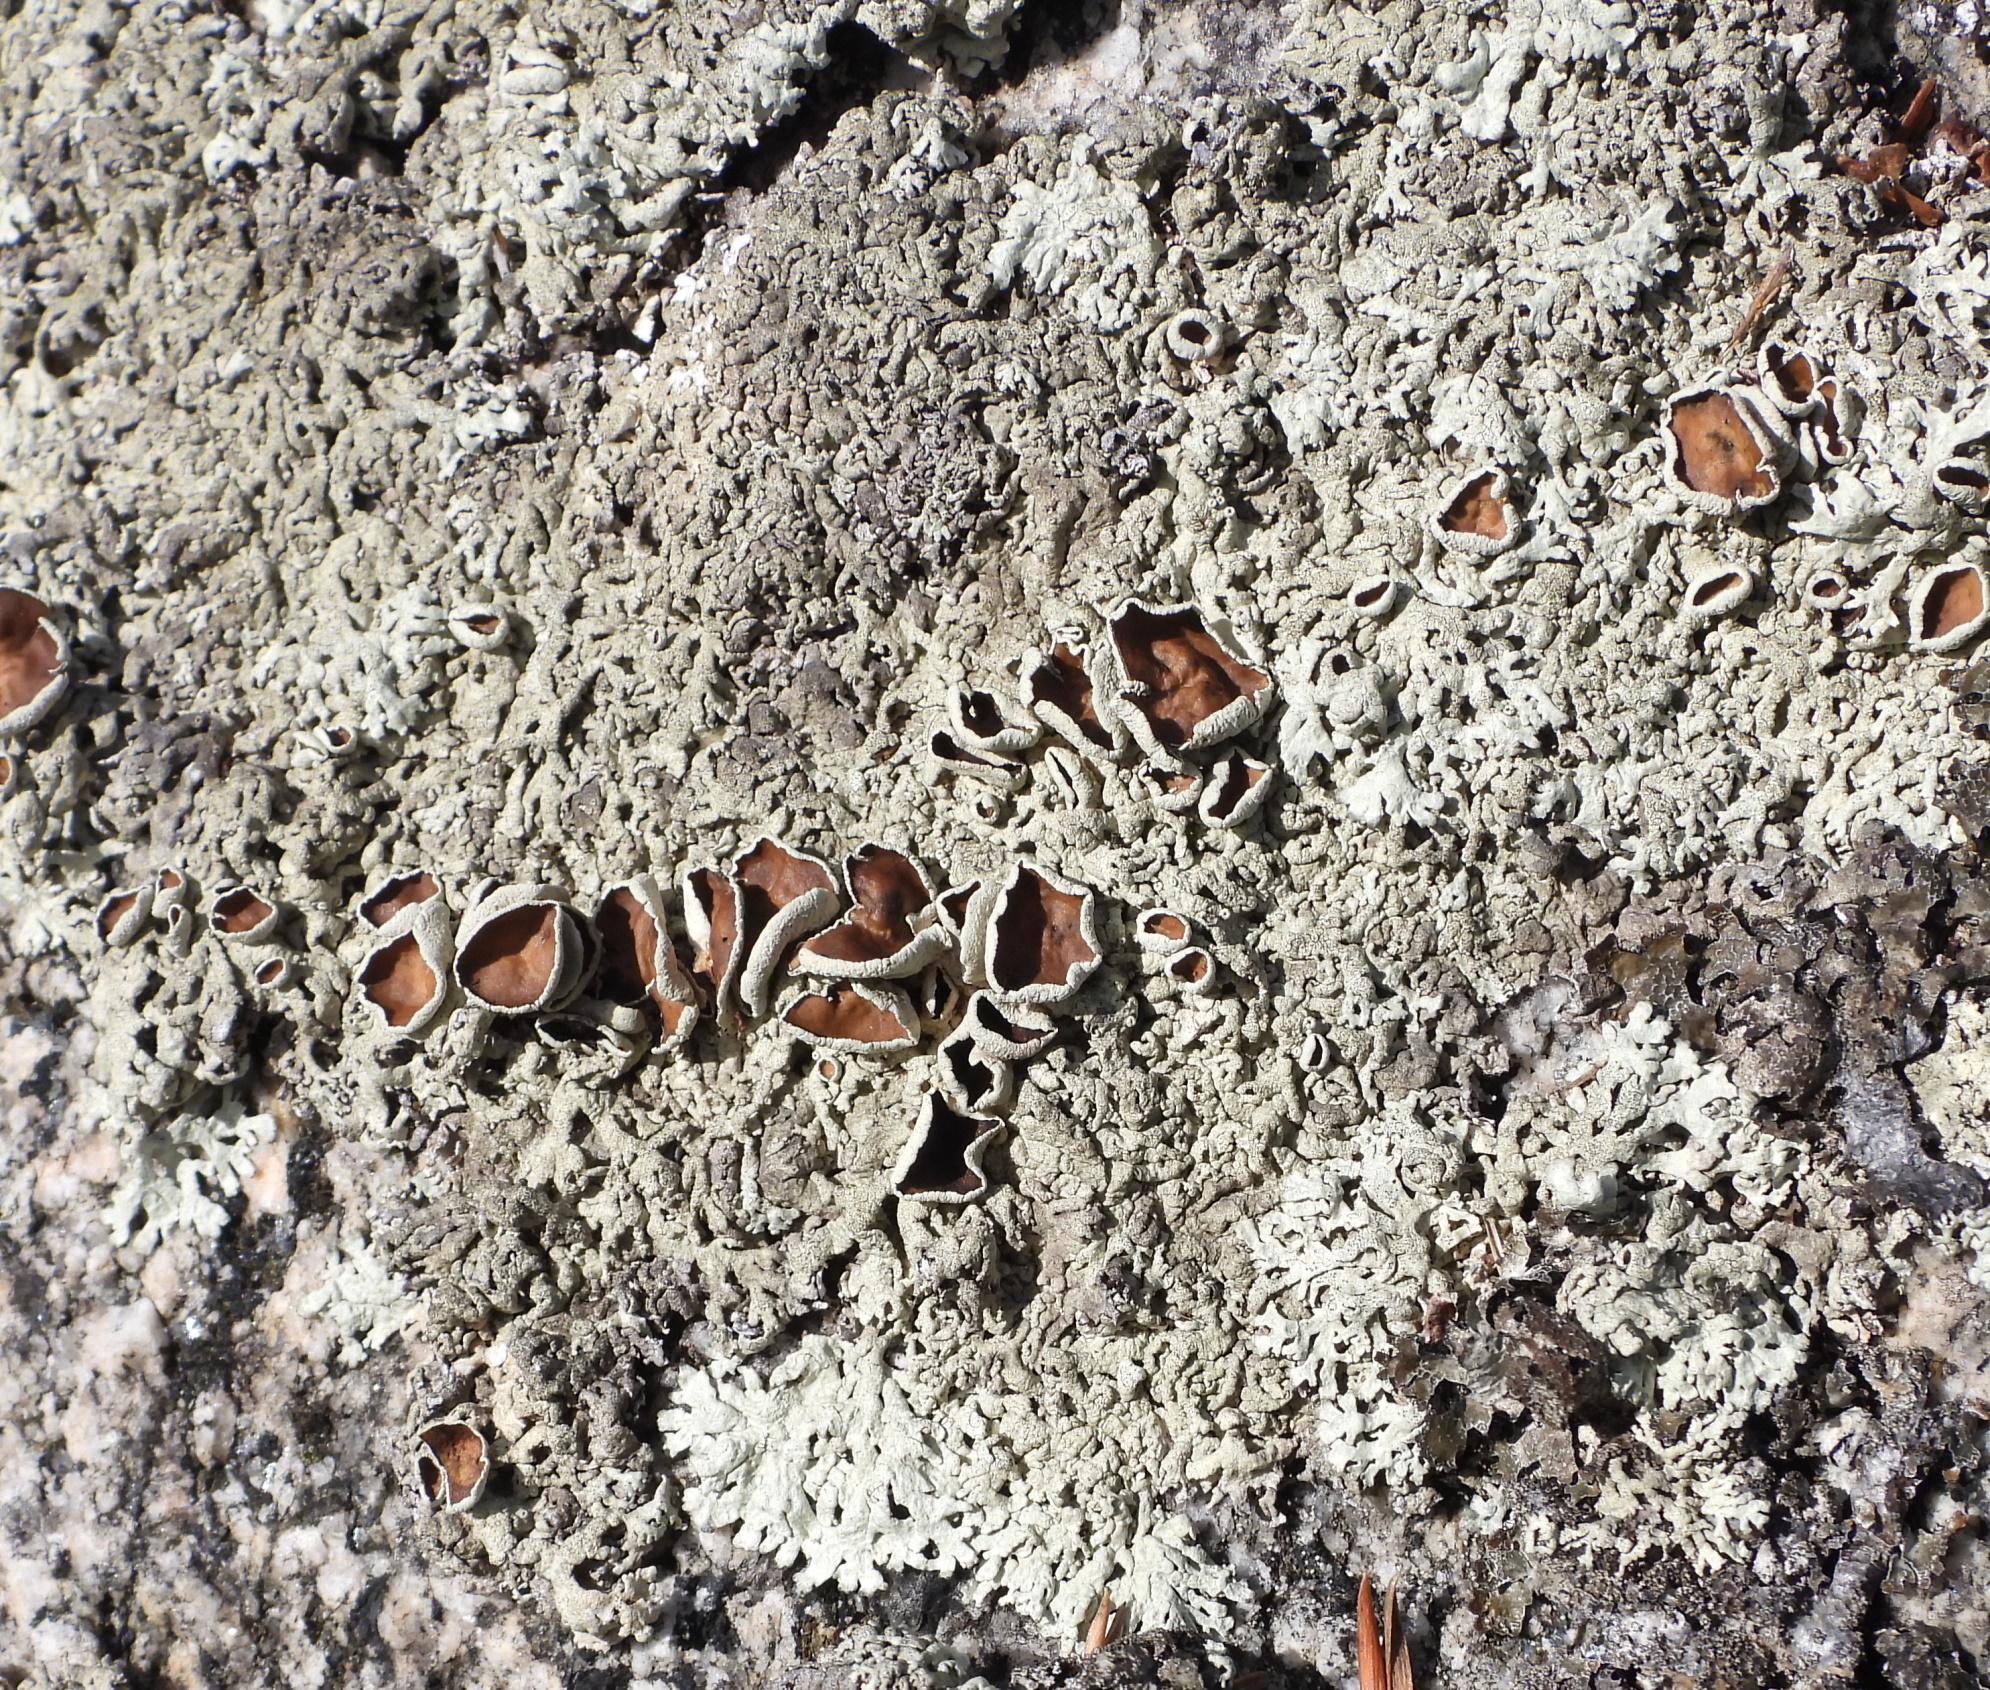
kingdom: Fungi
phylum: Ascomycota
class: Lecanoromycetes
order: Lecanorales
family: Parmeliaceae
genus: Arctoparmelia
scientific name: Arctoparmelia centrifuga
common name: Concentric ring lichen
